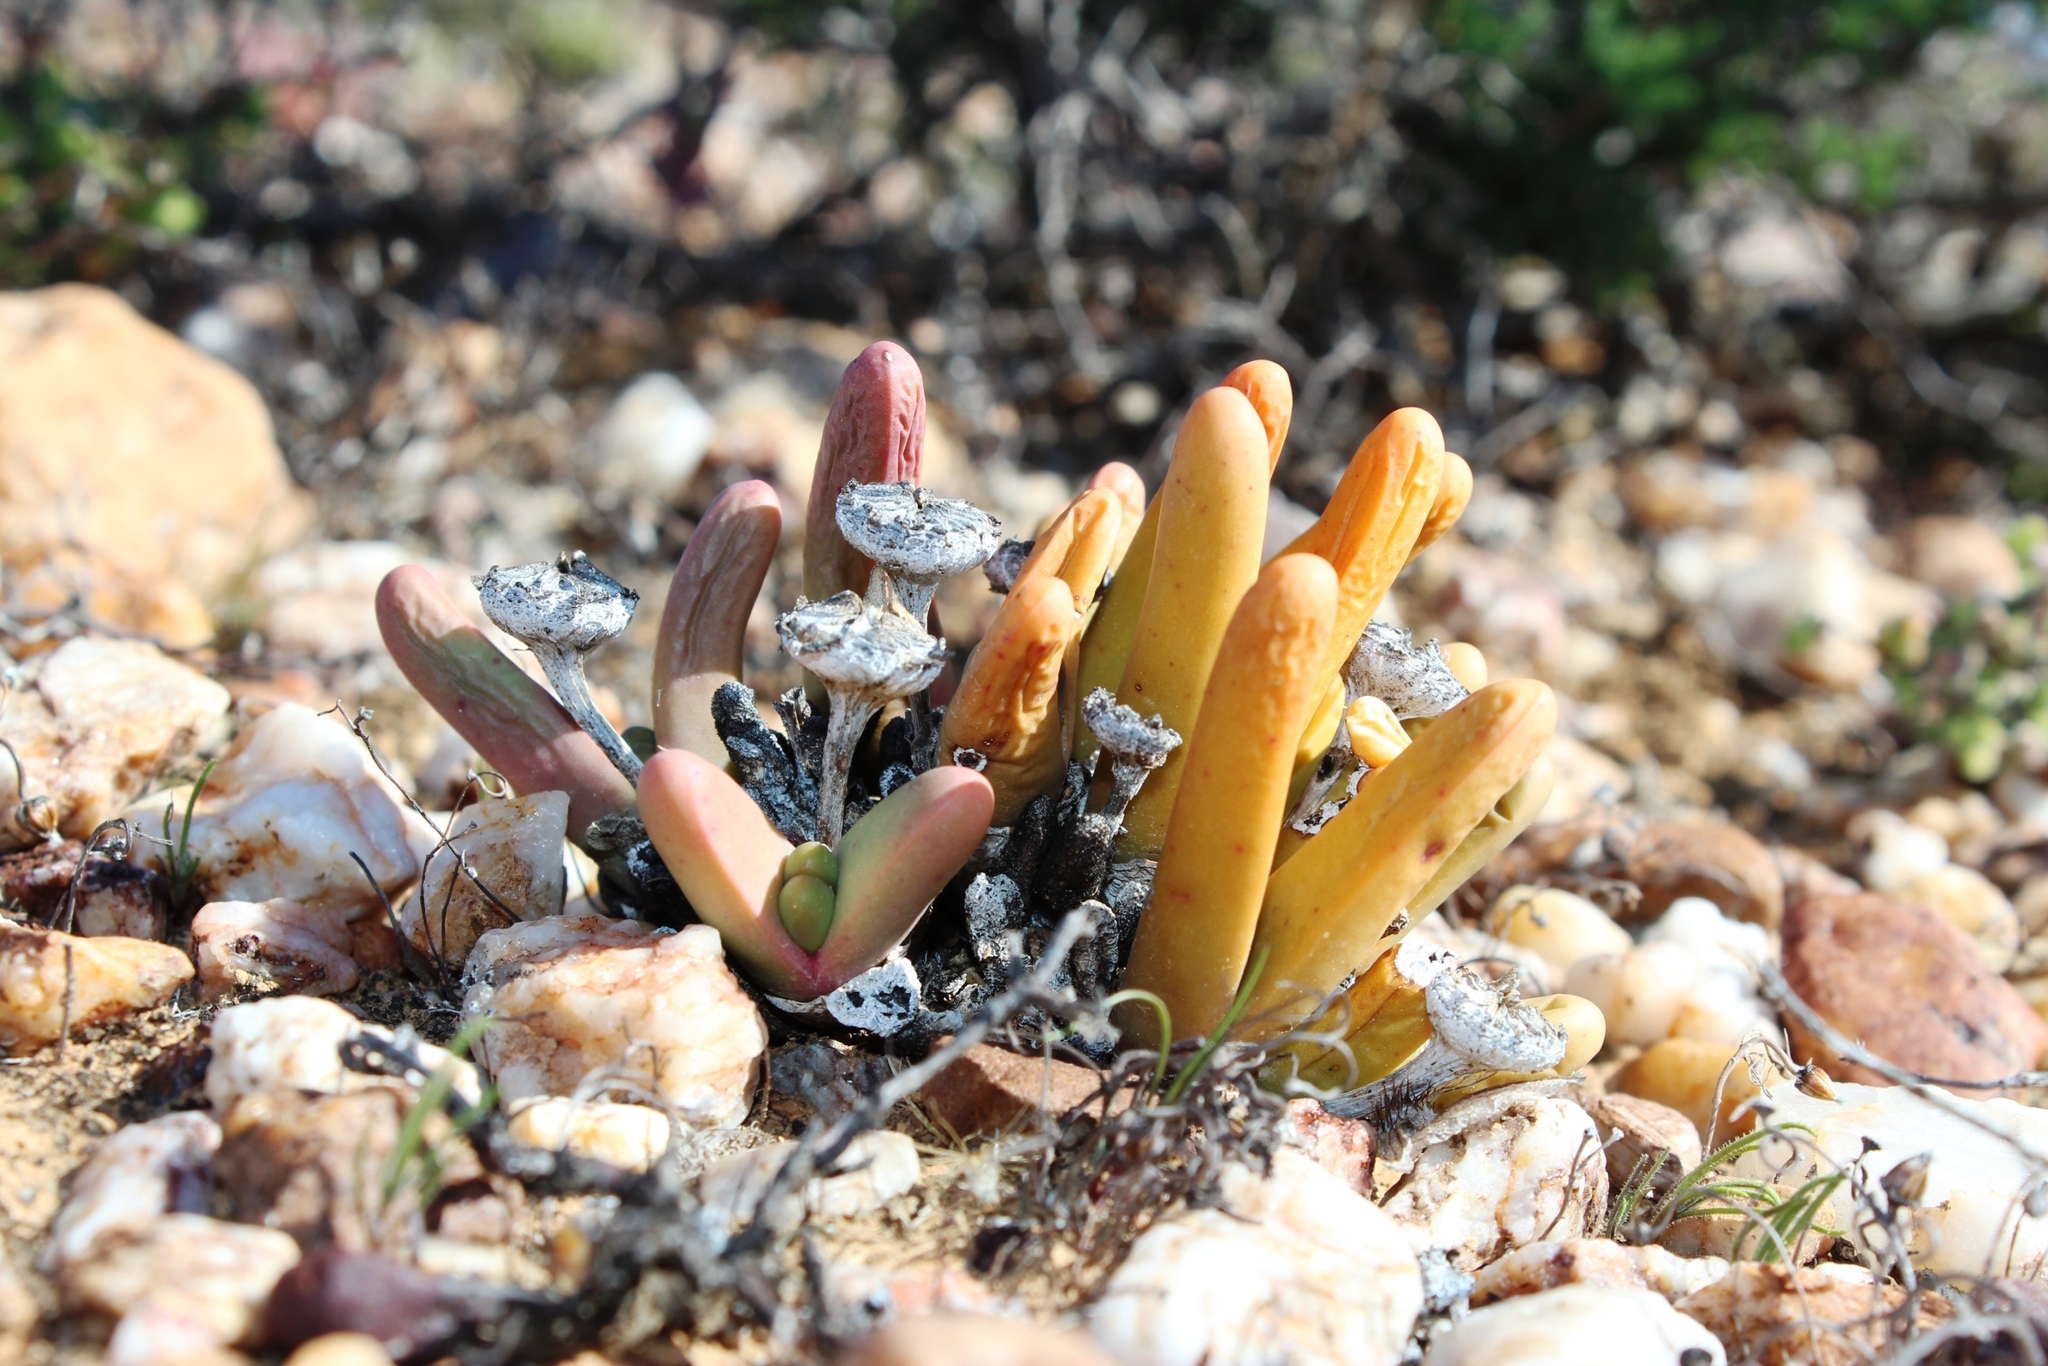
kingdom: Plantae
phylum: Tracheophyta
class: Magnoliopsida
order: Caryophyllales
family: Aizoaceae
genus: Argyroderma
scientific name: Argyroderma fissum
